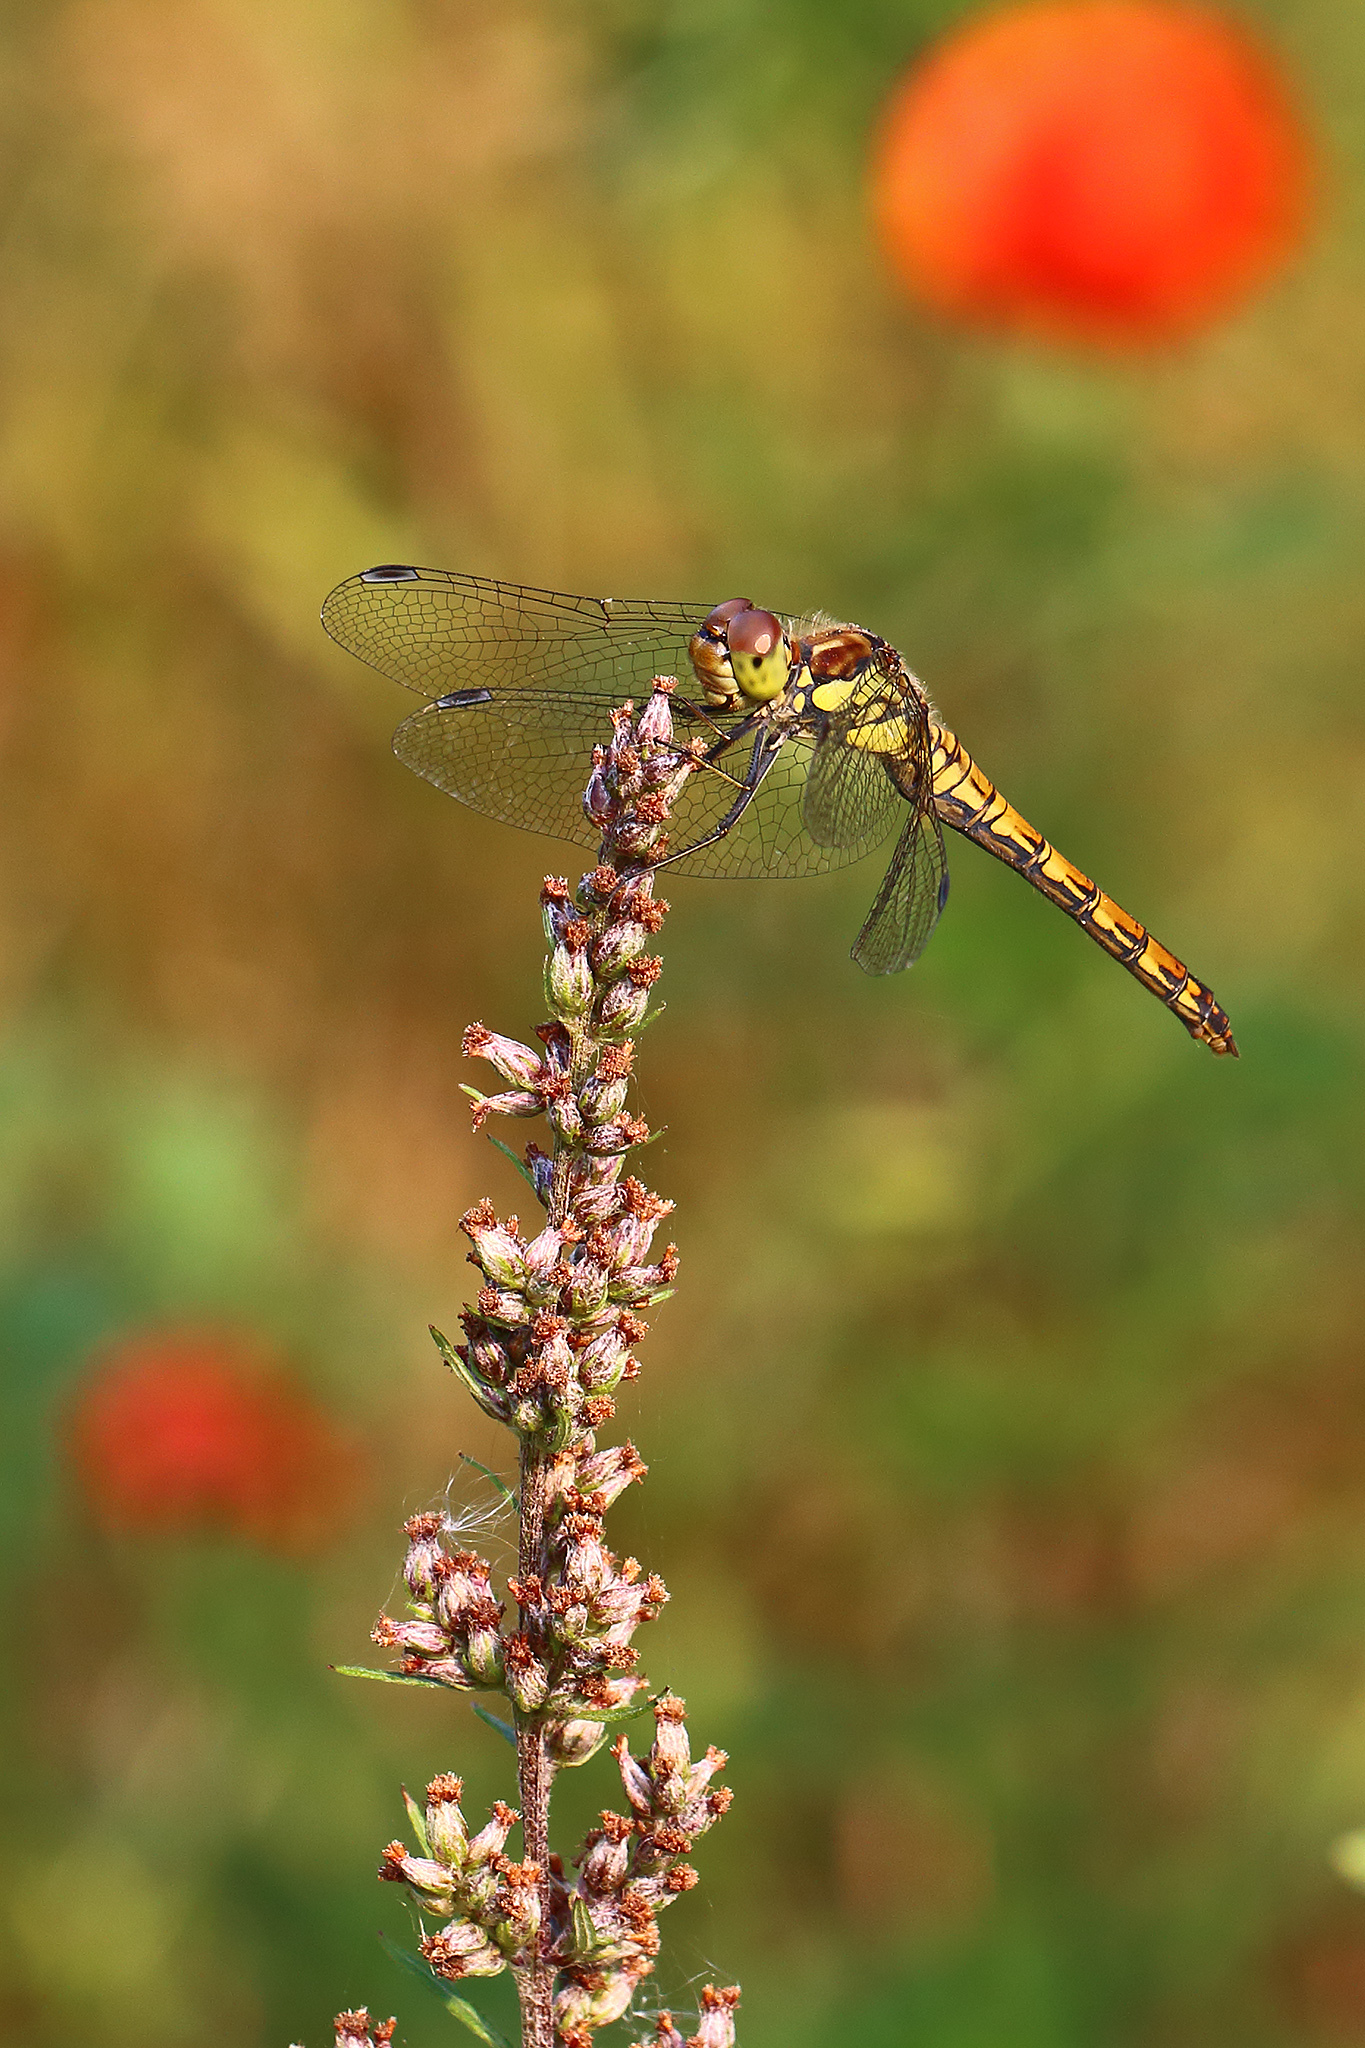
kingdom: Animalia
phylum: Arthropoda
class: Insecta
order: Odonata
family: Libellulidae
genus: Sympetrum
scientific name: Sympetrum striolatum
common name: Common darter
